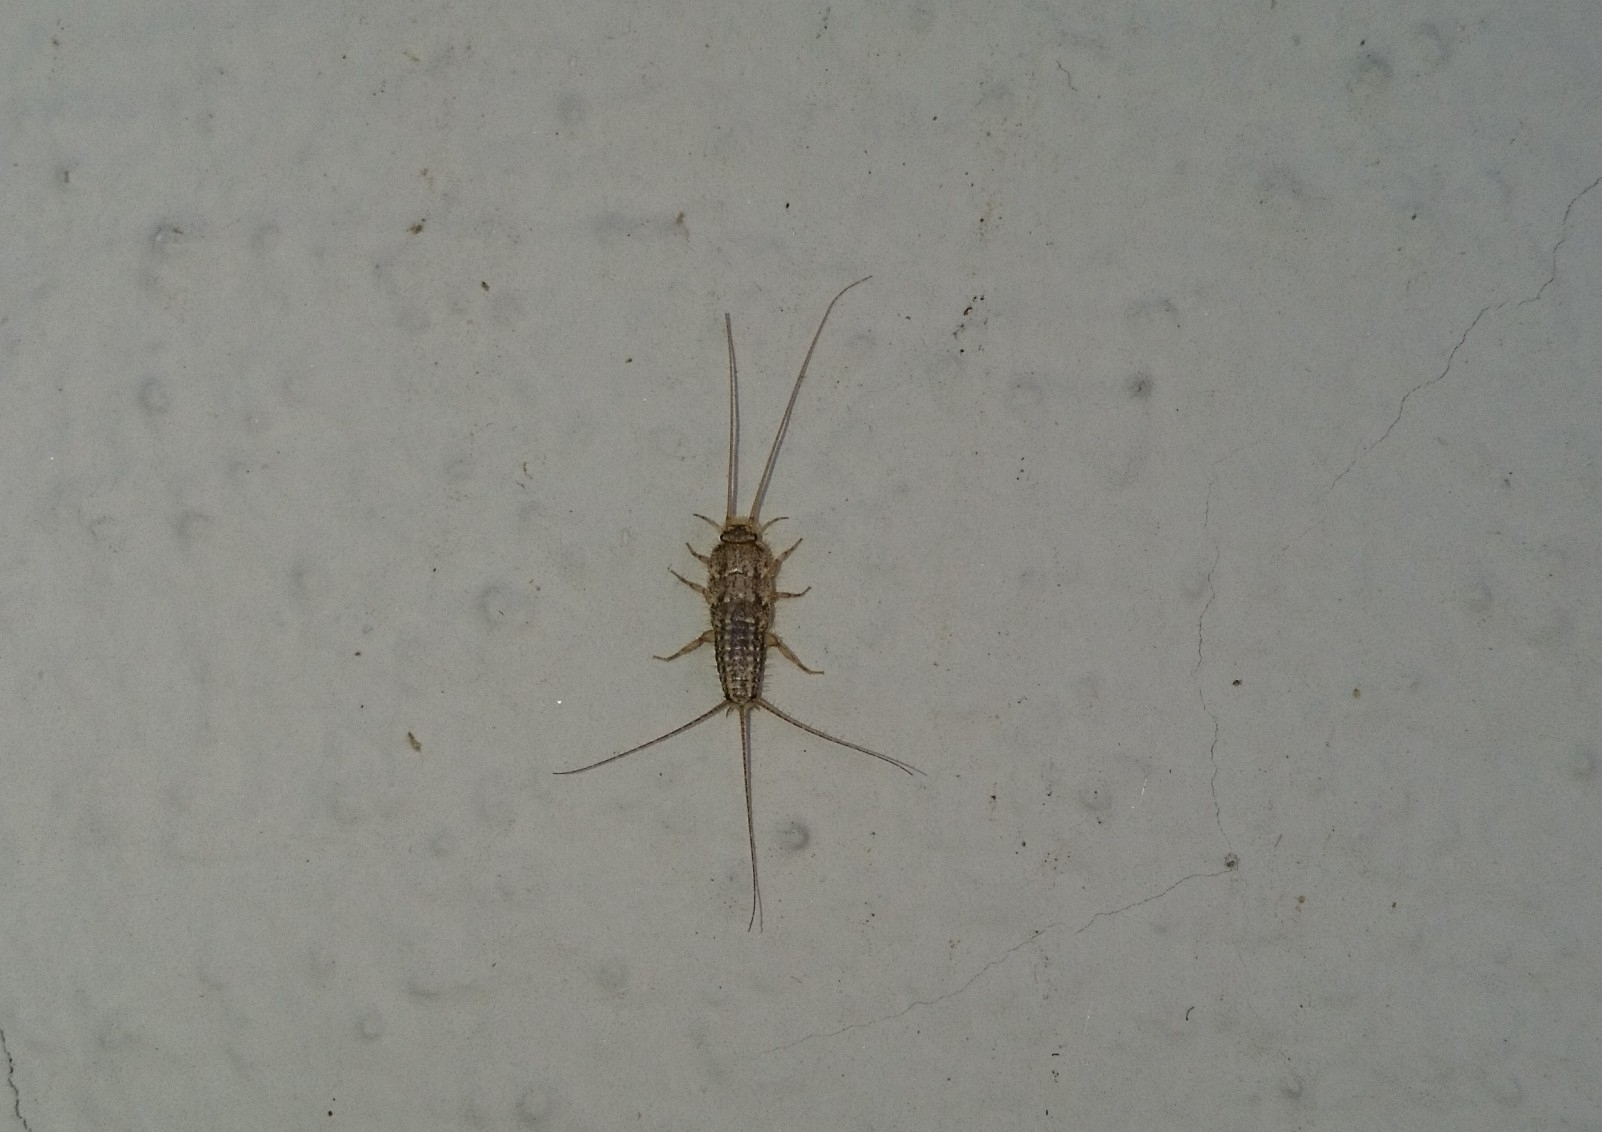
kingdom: Animalia
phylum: Arthropoda
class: Insecta
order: Zygentoma
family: Lepismatidae
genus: Ctenolepisma
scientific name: Ctenolepisma lineata
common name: Four-lined silverfish
